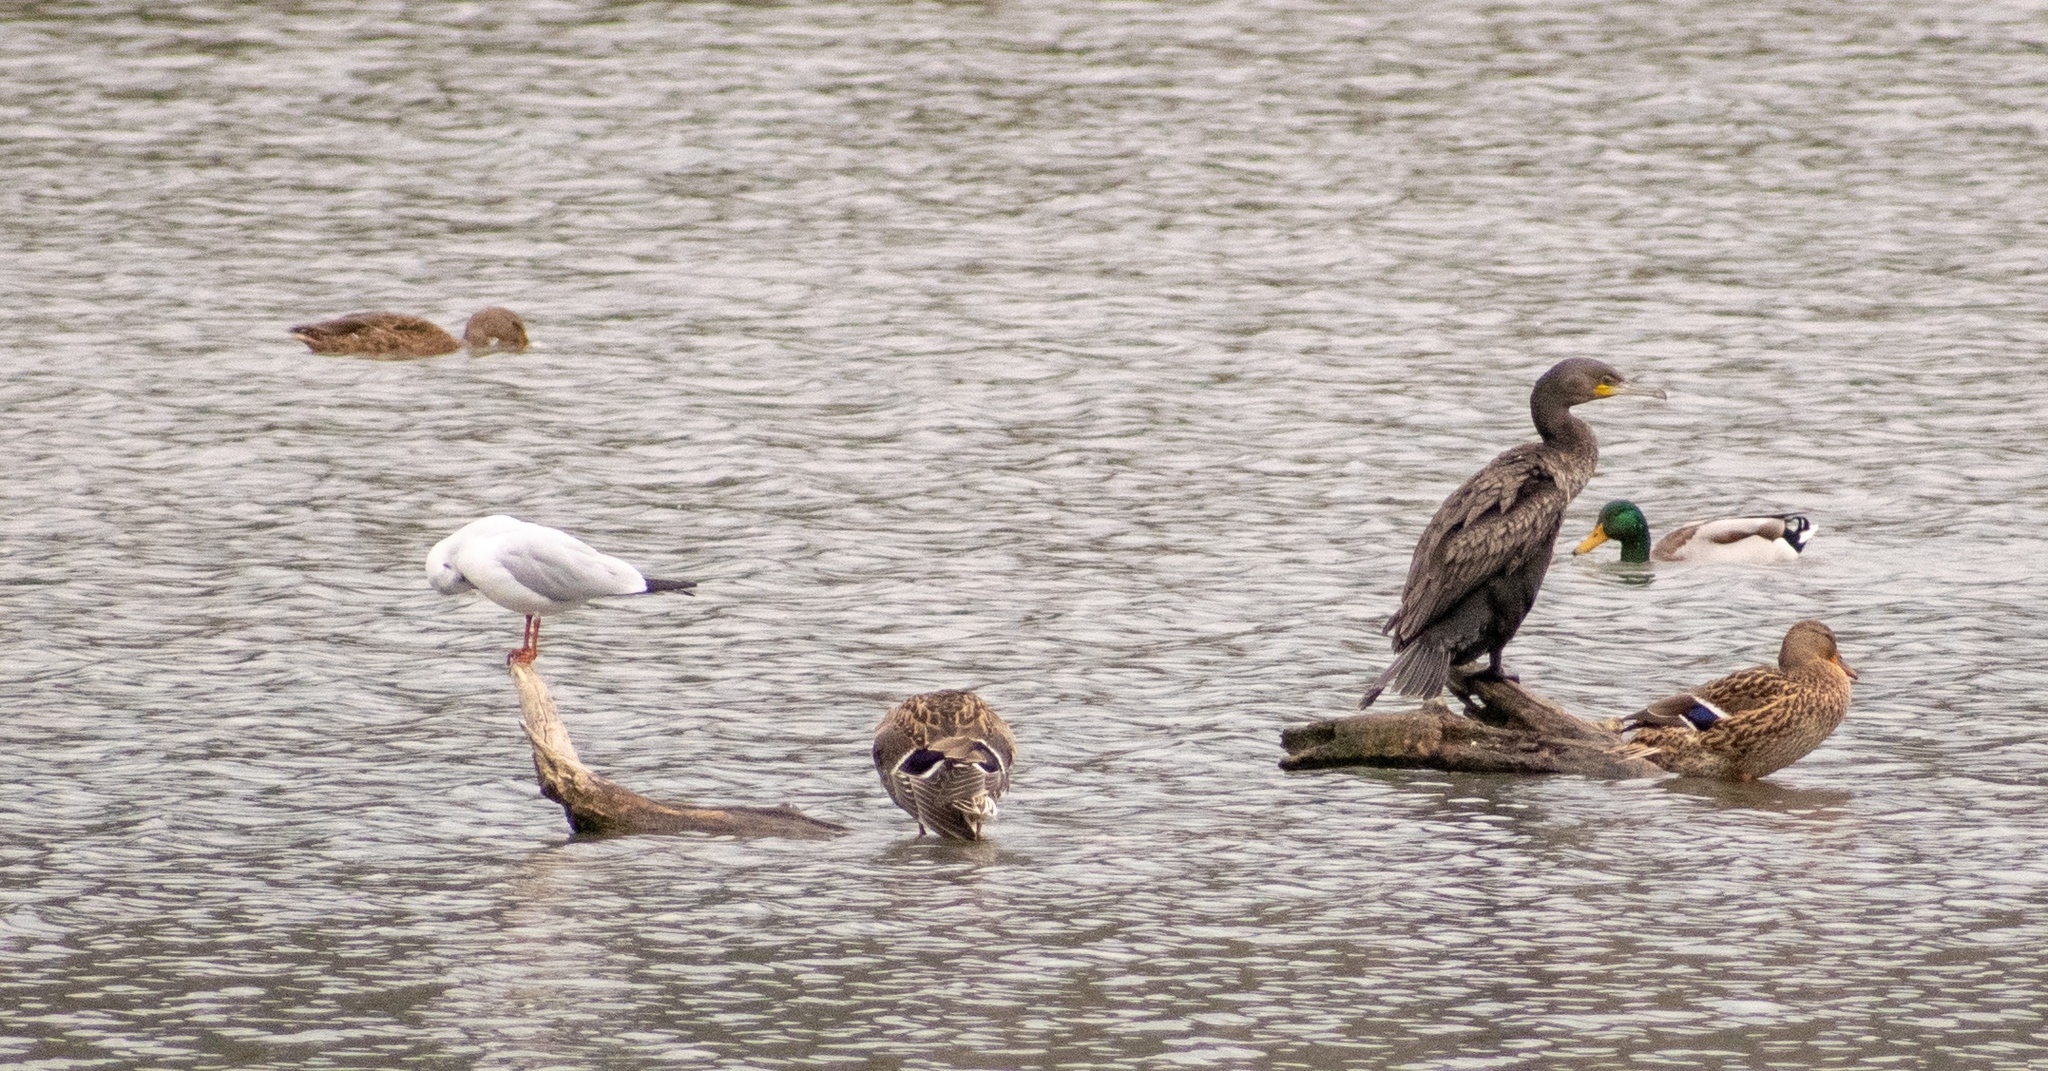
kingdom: Animalia
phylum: Chordata
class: Aves
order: Charadriiformes
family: Laridae
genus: Chroicocephalus
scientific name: Chroicocephalus ridibundus
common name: Black-headed gull
